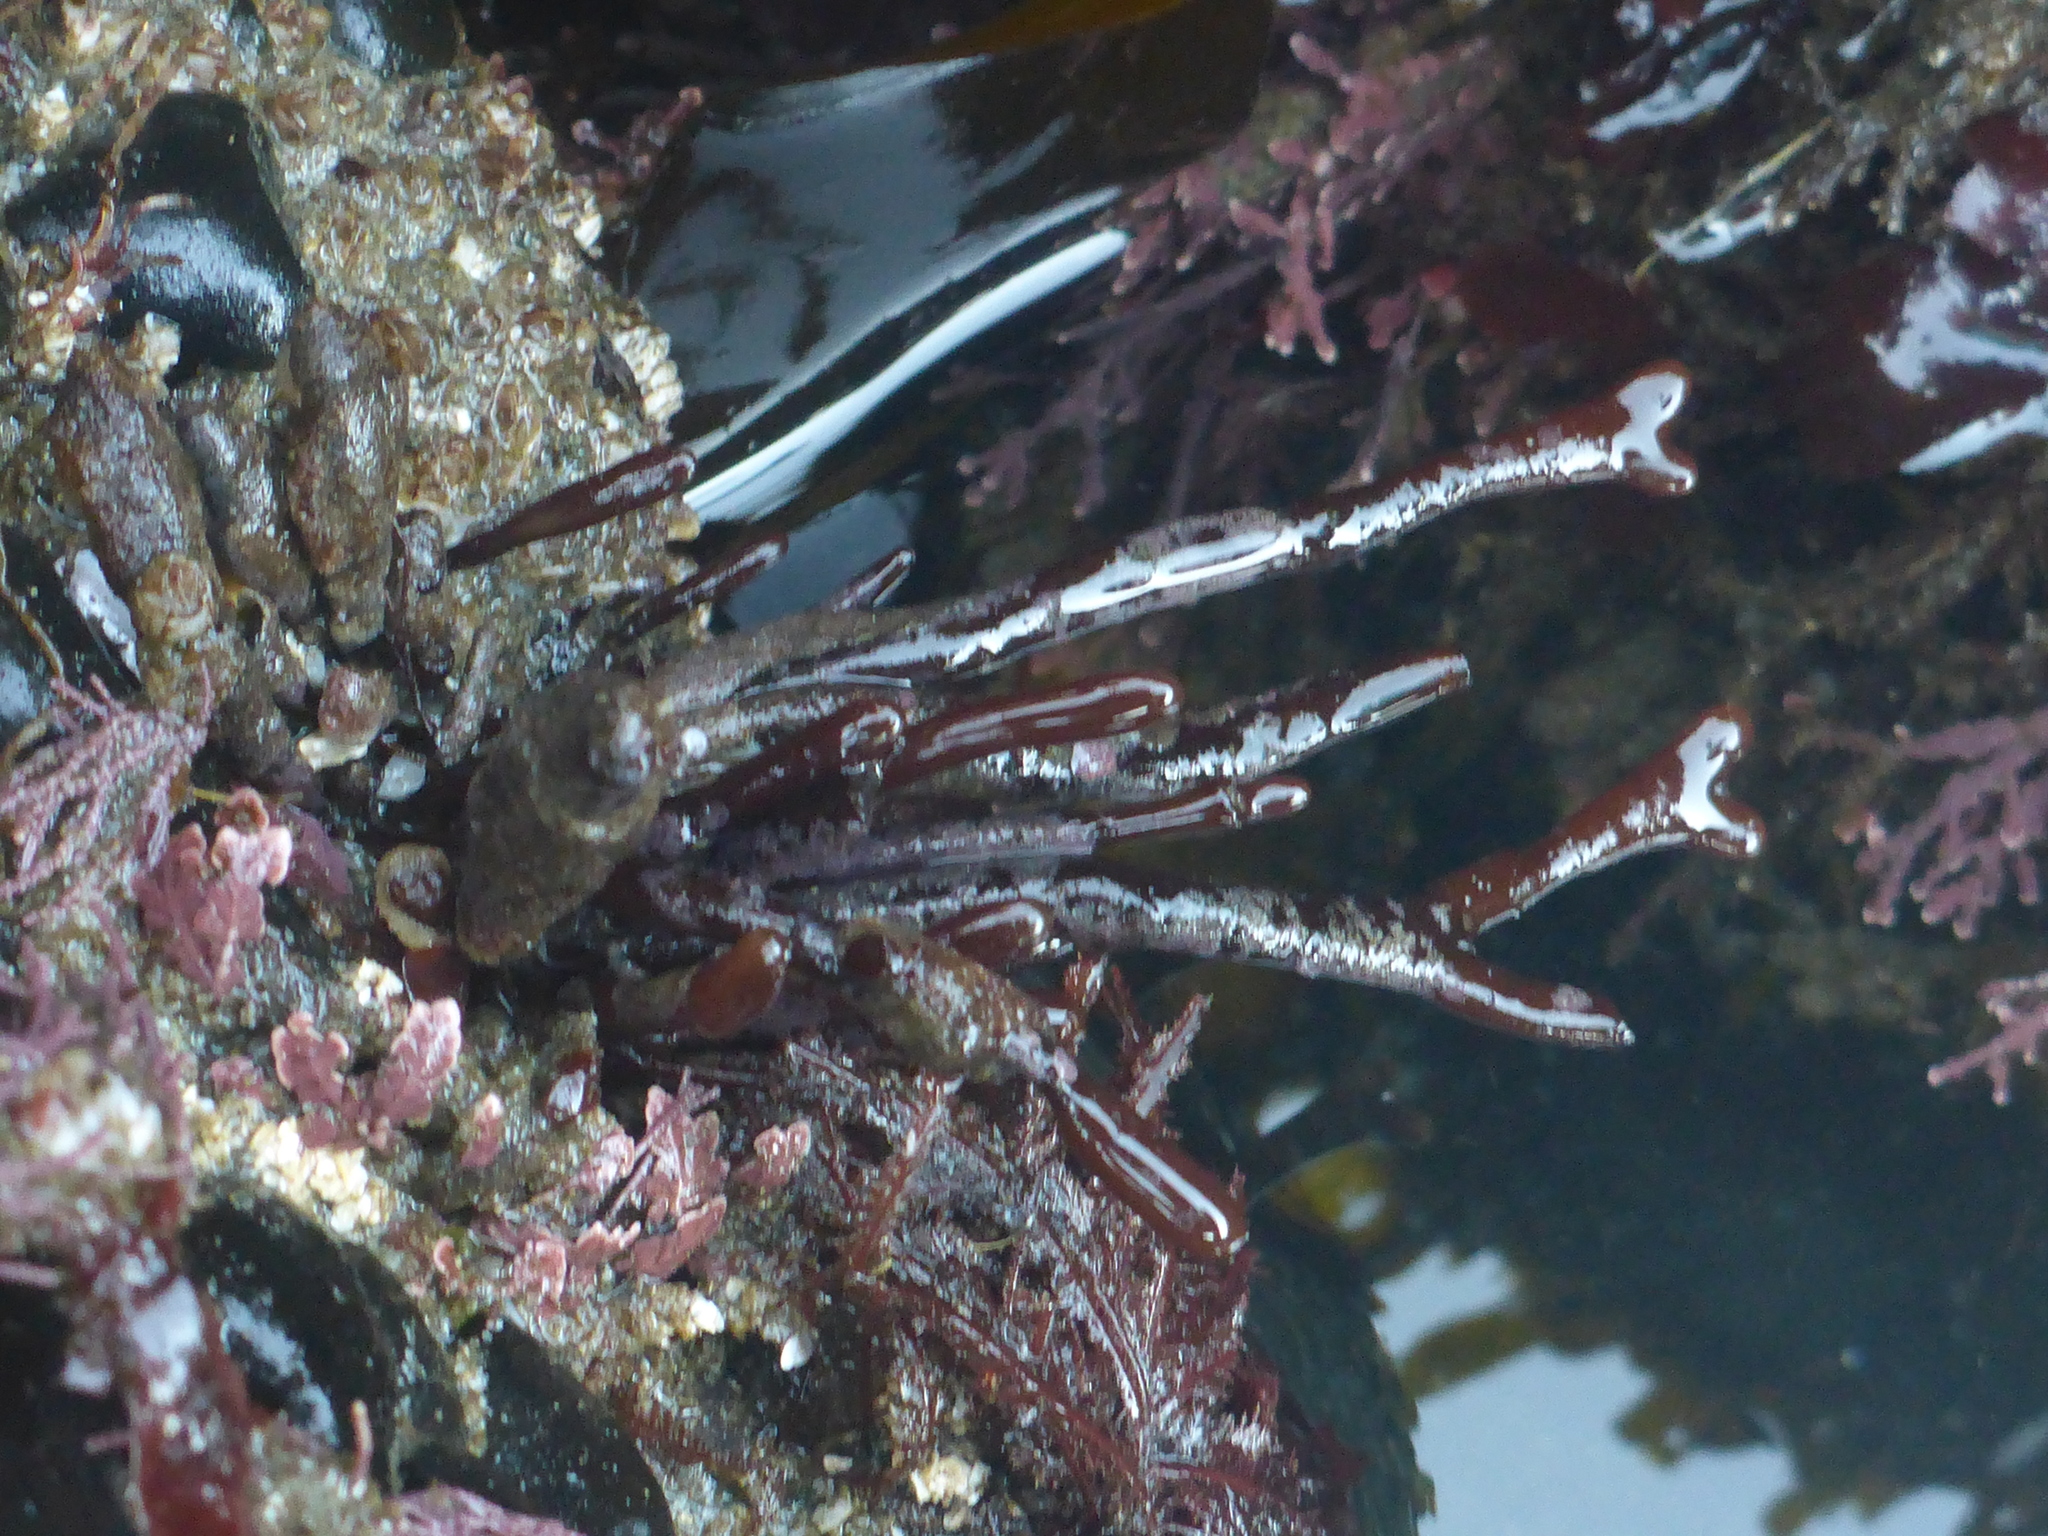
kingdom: Plantae
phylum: Rhodophyta
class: Florideophyceae
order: Gigartinales
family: Phyllophoraceae
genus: Ahnfeltiopsis
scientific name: Ahnfeltiopsis linearis
